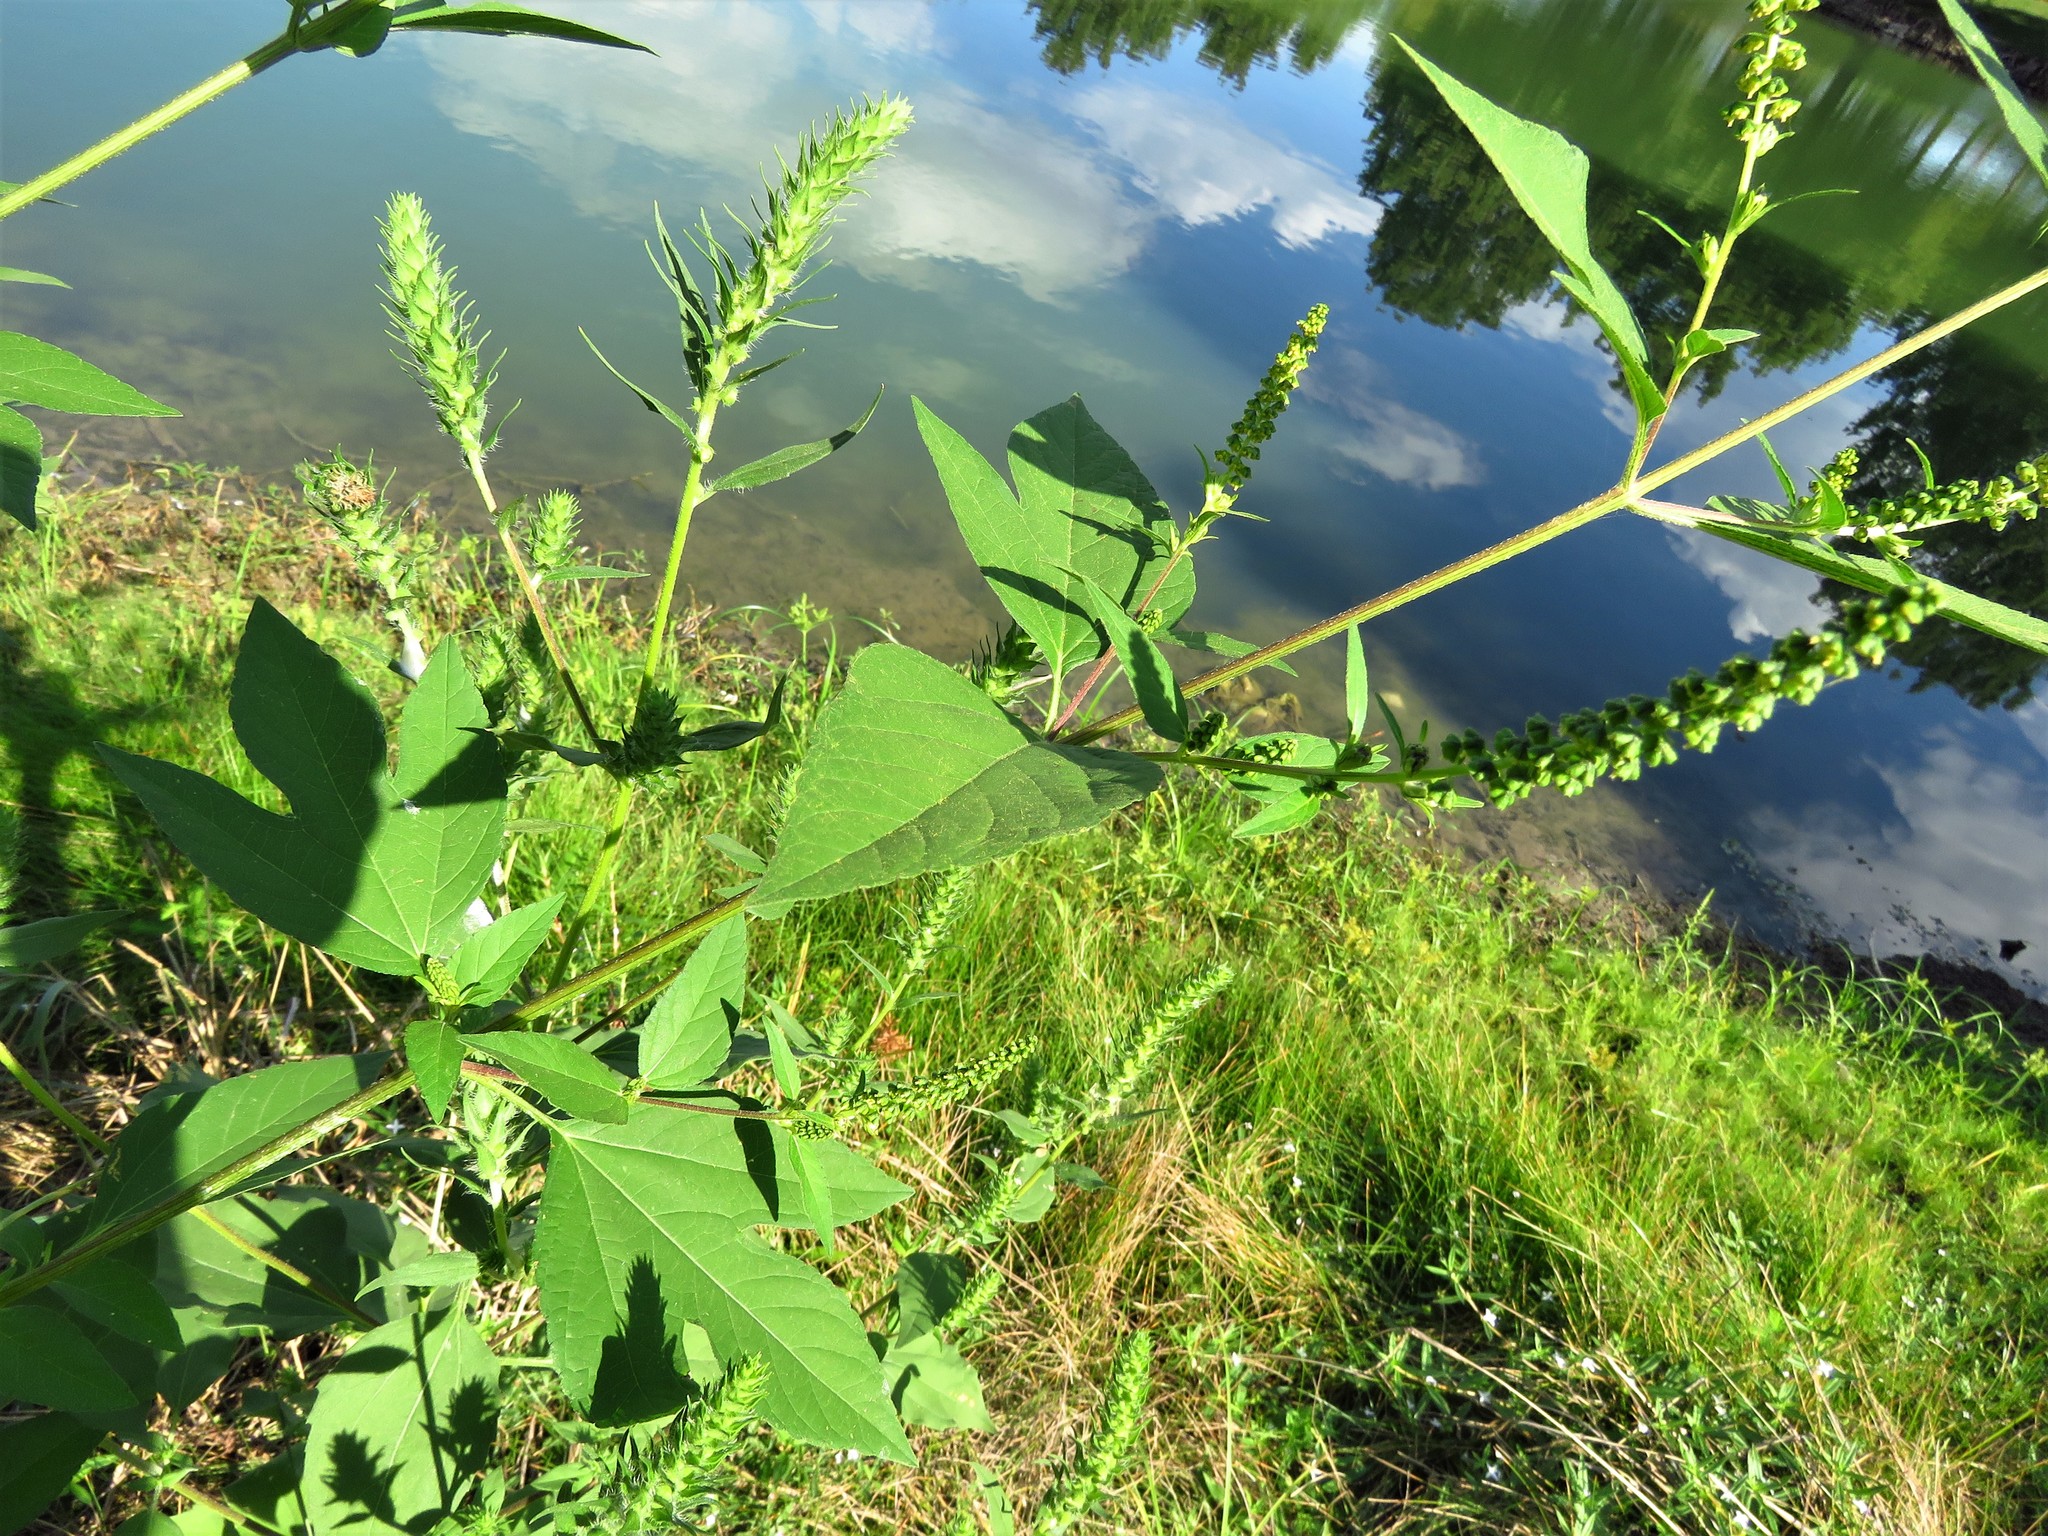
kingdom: Plantae
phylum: Tracheophyta
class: Magnoliopsida
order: Asterales
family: Asteraceae
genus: Ambrosia
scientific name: Ambrosia trifida
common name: Giant ragweed
